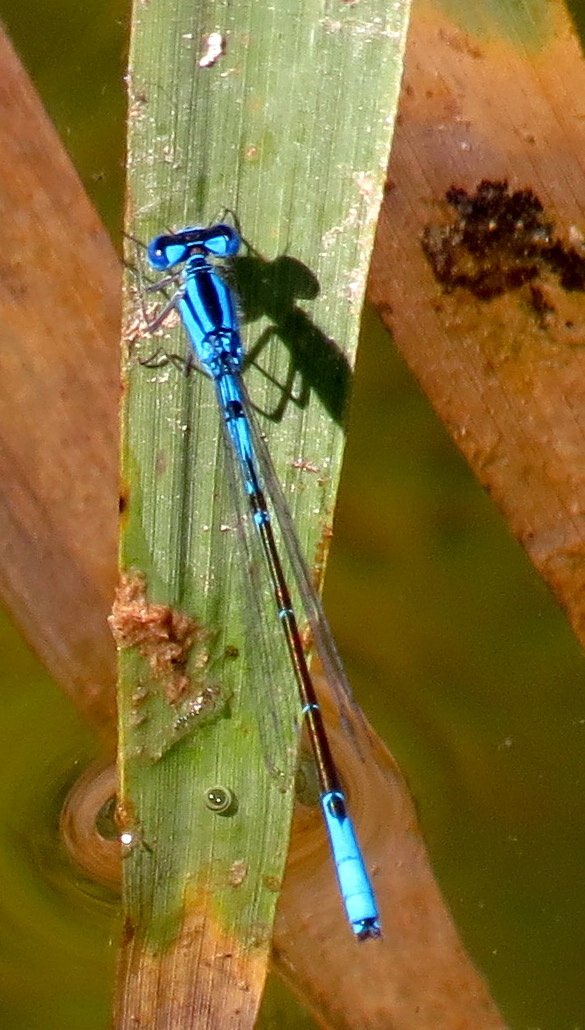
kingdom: Animalia
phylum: Arthropoda
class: Insecta
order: Odonata
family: Coenagrionidae
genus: Enallagma
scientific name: Enallagma aspersum
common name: Azure bluet
